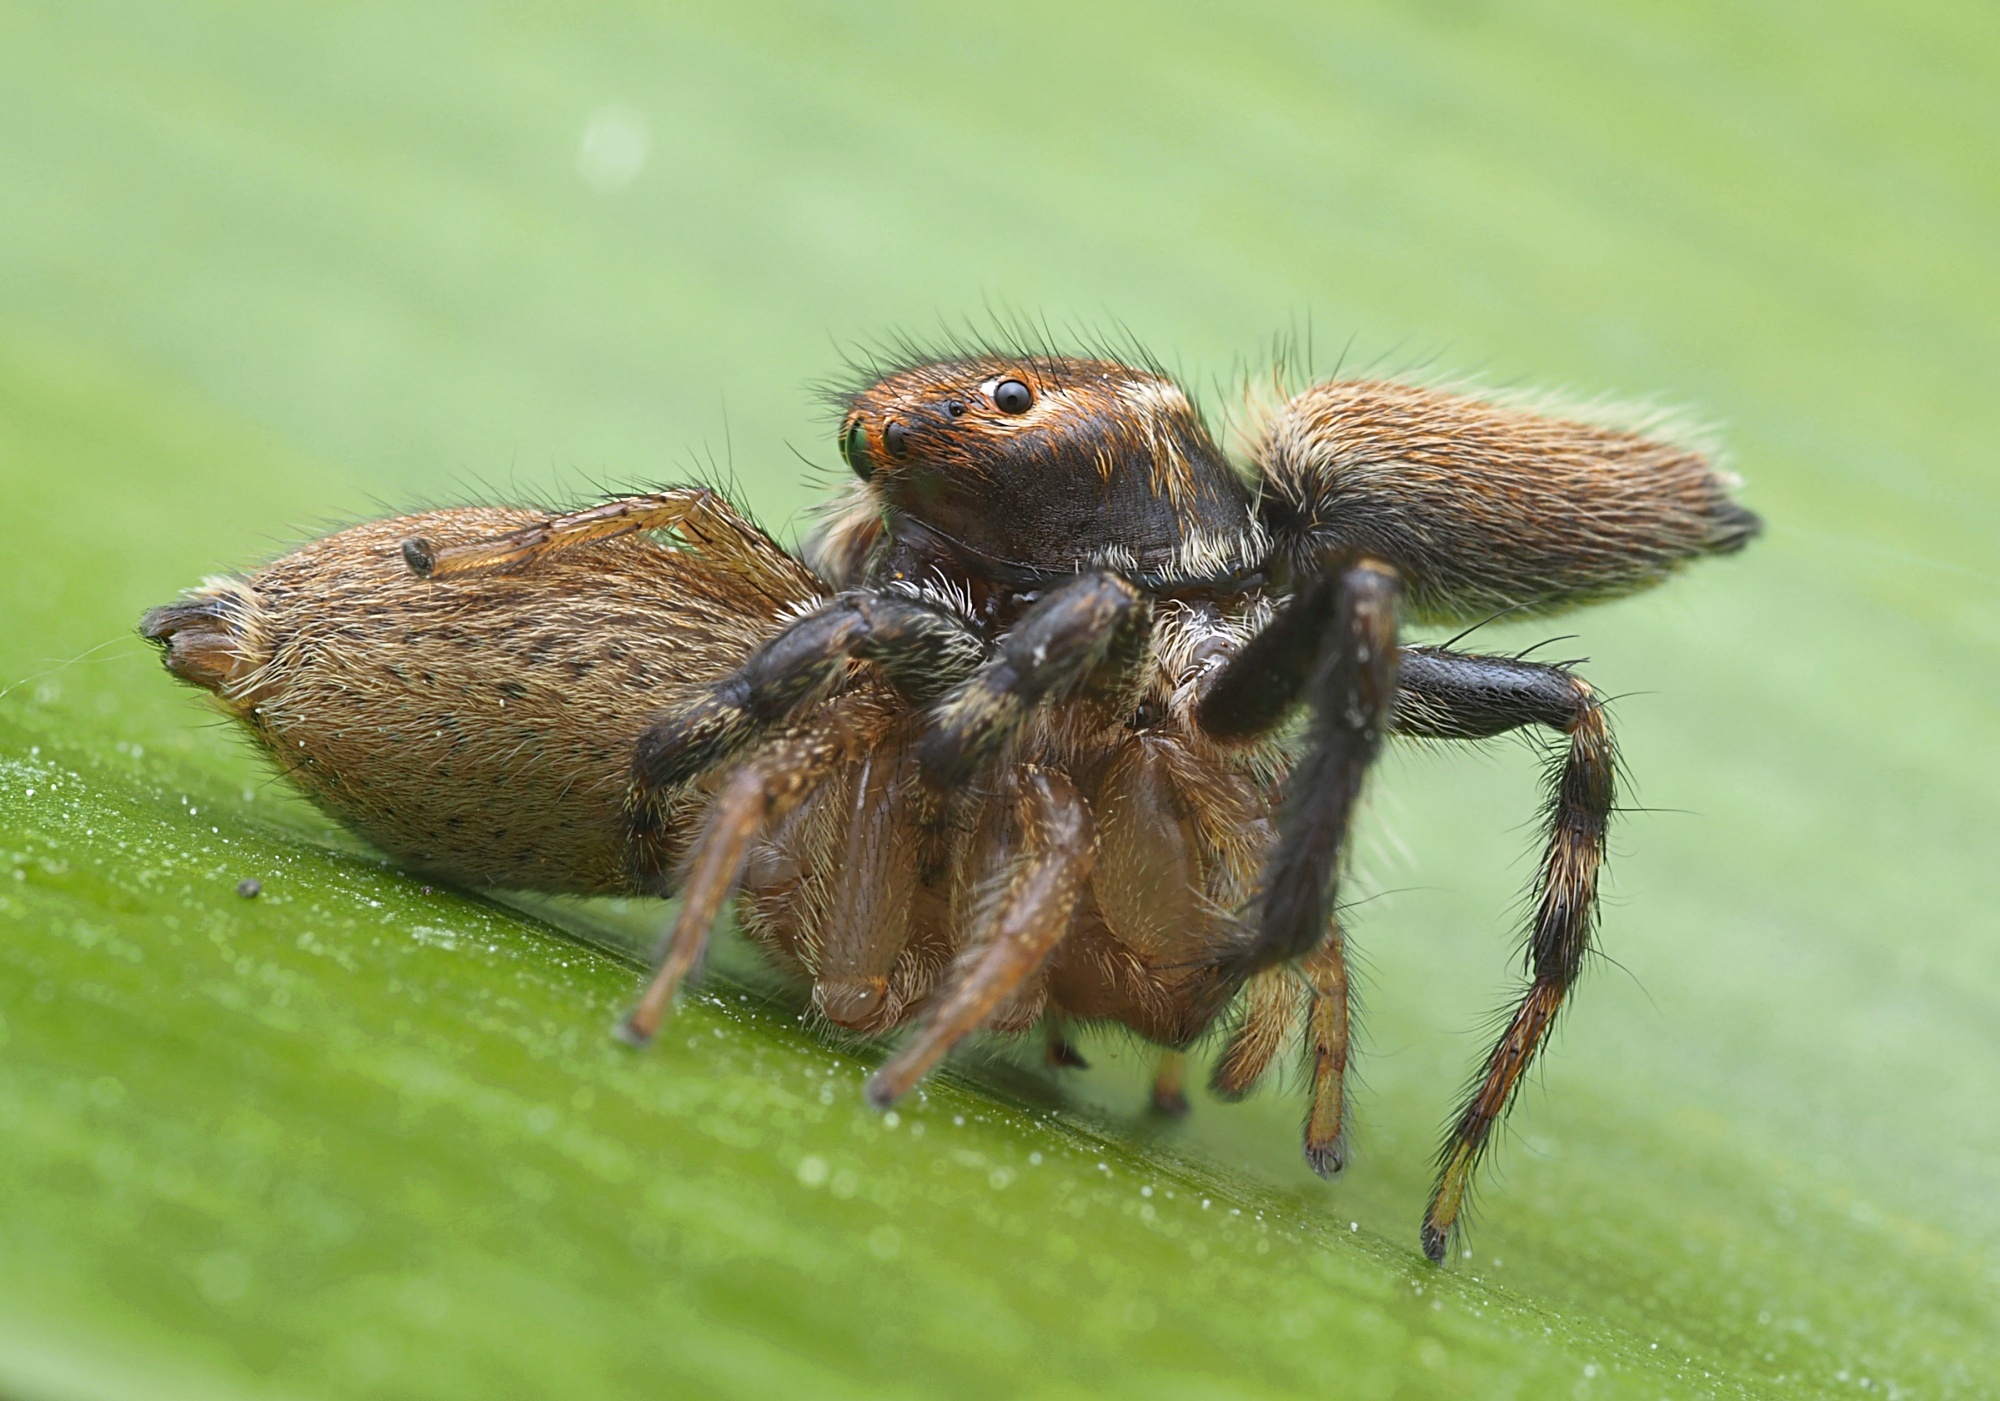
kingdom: Animalia
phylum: Arthropoda
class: Arachnida
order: Araneae
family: Salticidae
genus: Maratus
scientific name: Maratus griseus
